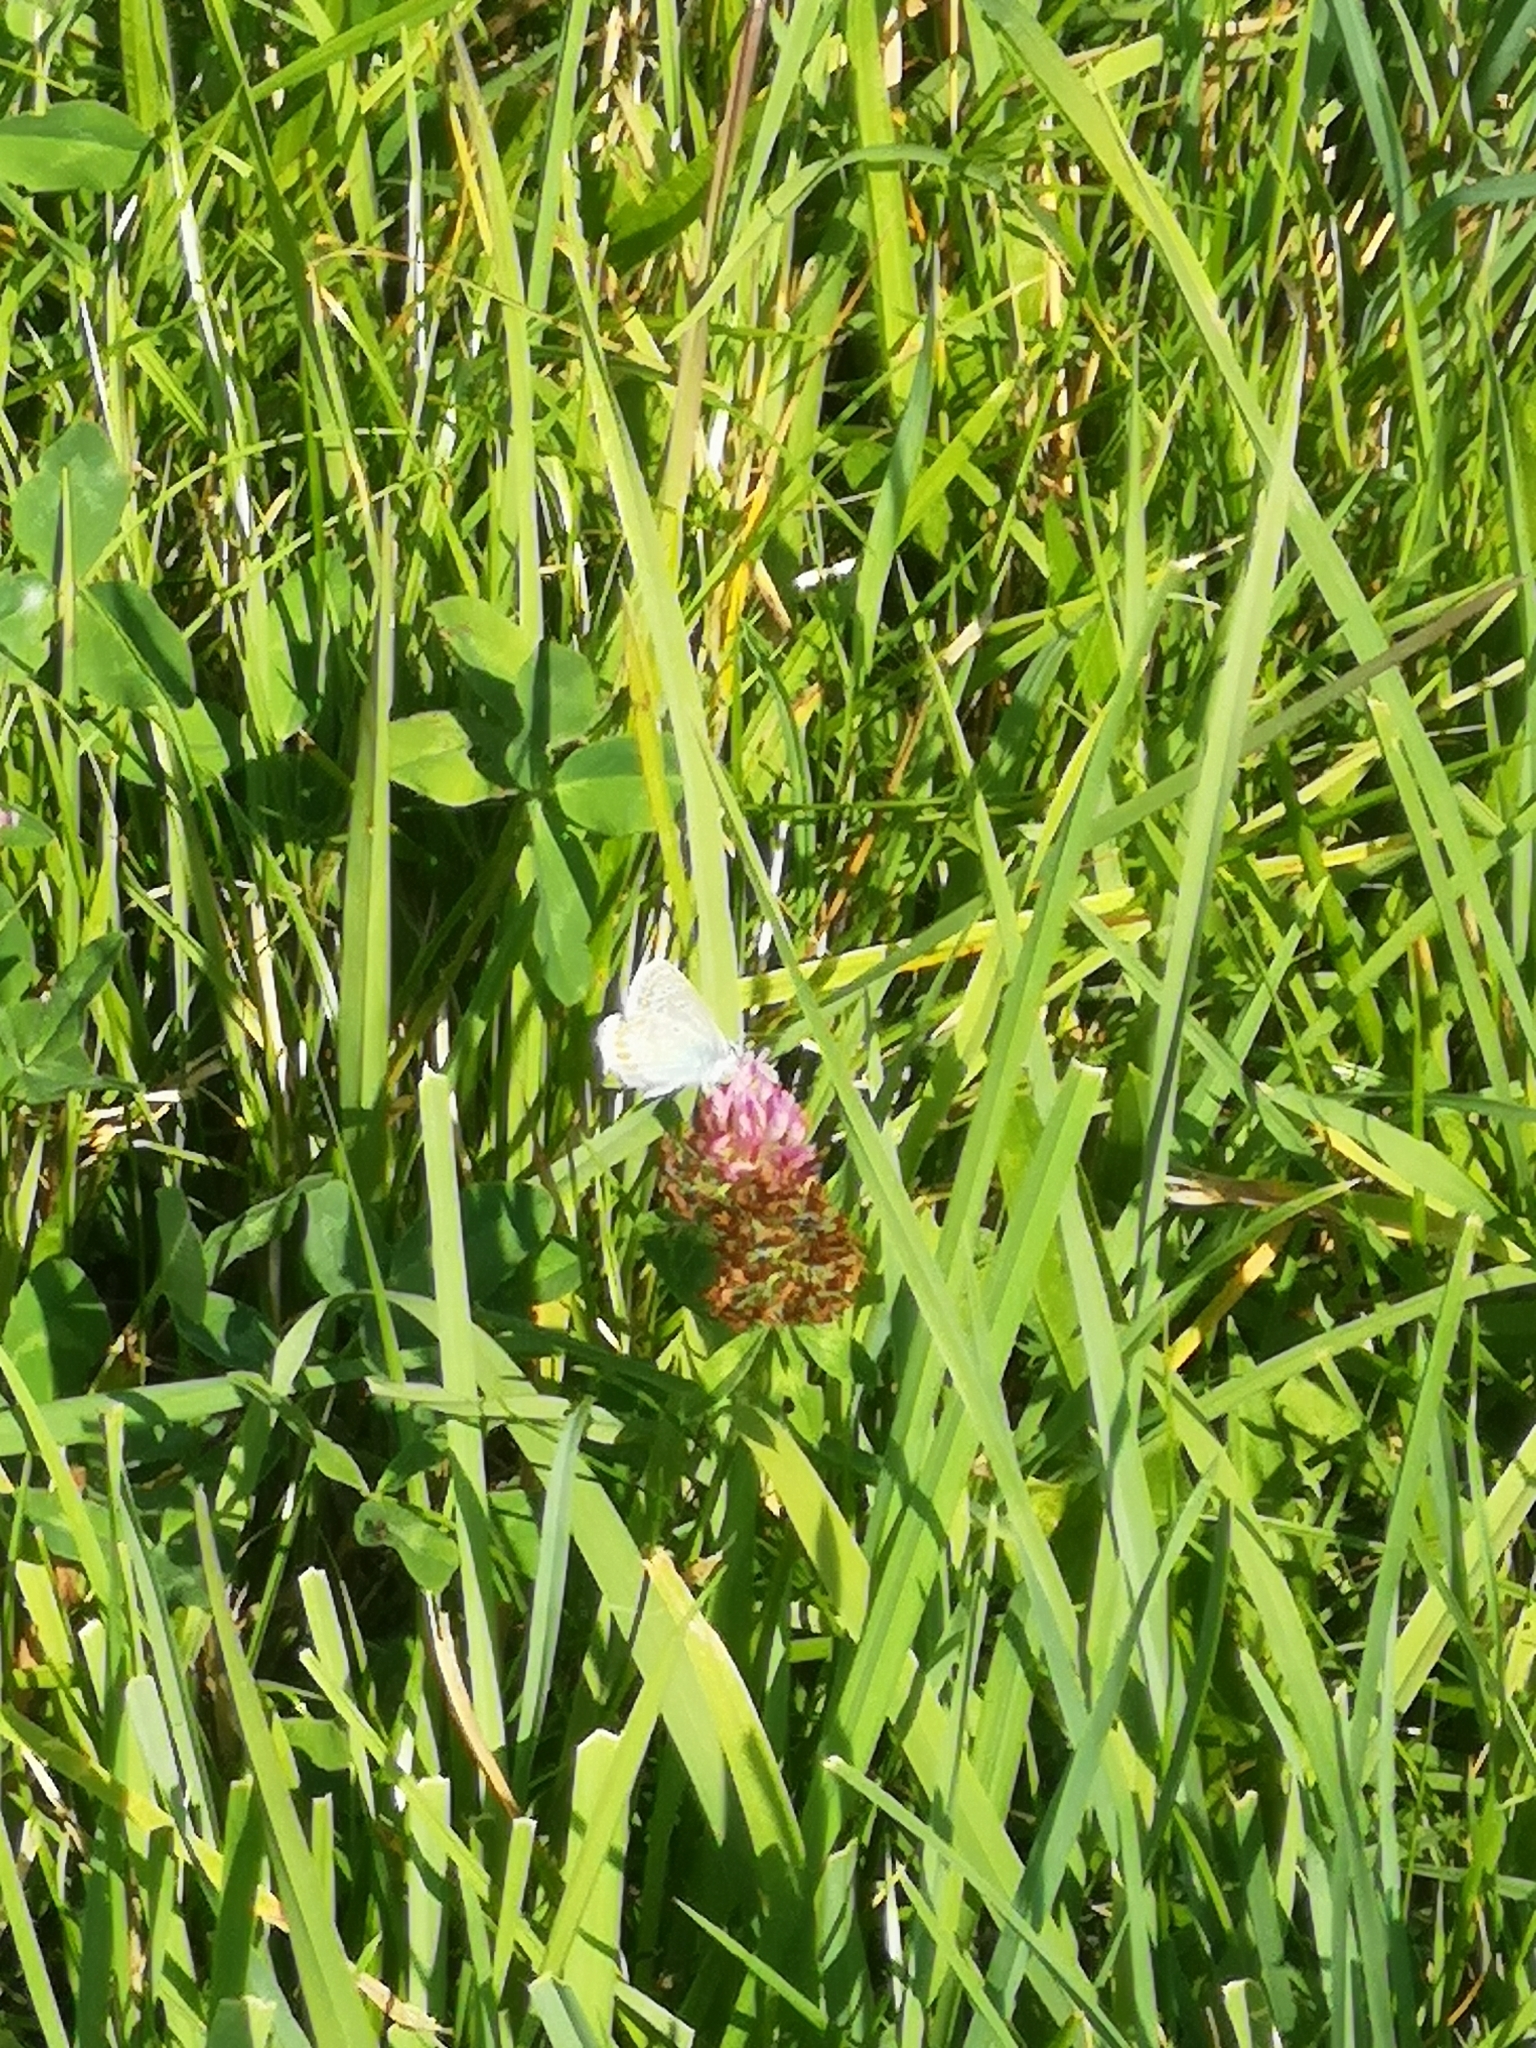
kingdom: Animalia
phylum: Arthropoda
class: Insecta
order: Lepidoptera
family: Lycaenidae
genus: Polyommatus
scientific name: Polyommatus icarus
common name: Common blue
